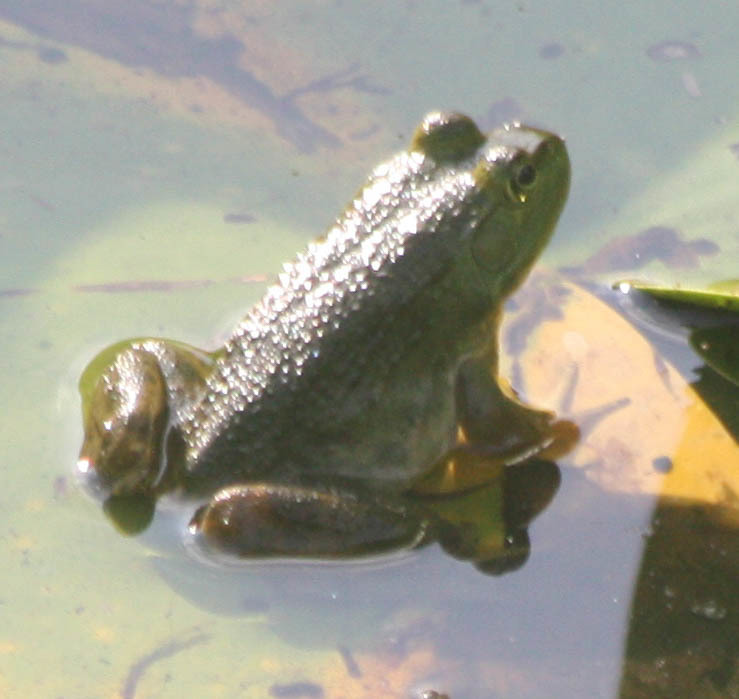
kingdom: Animalia
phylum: Chordata
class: Amphibia
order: Anura
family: Ranidae
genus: Lithobates
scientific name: Lithobates catesbeianus
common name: American bullfrog
